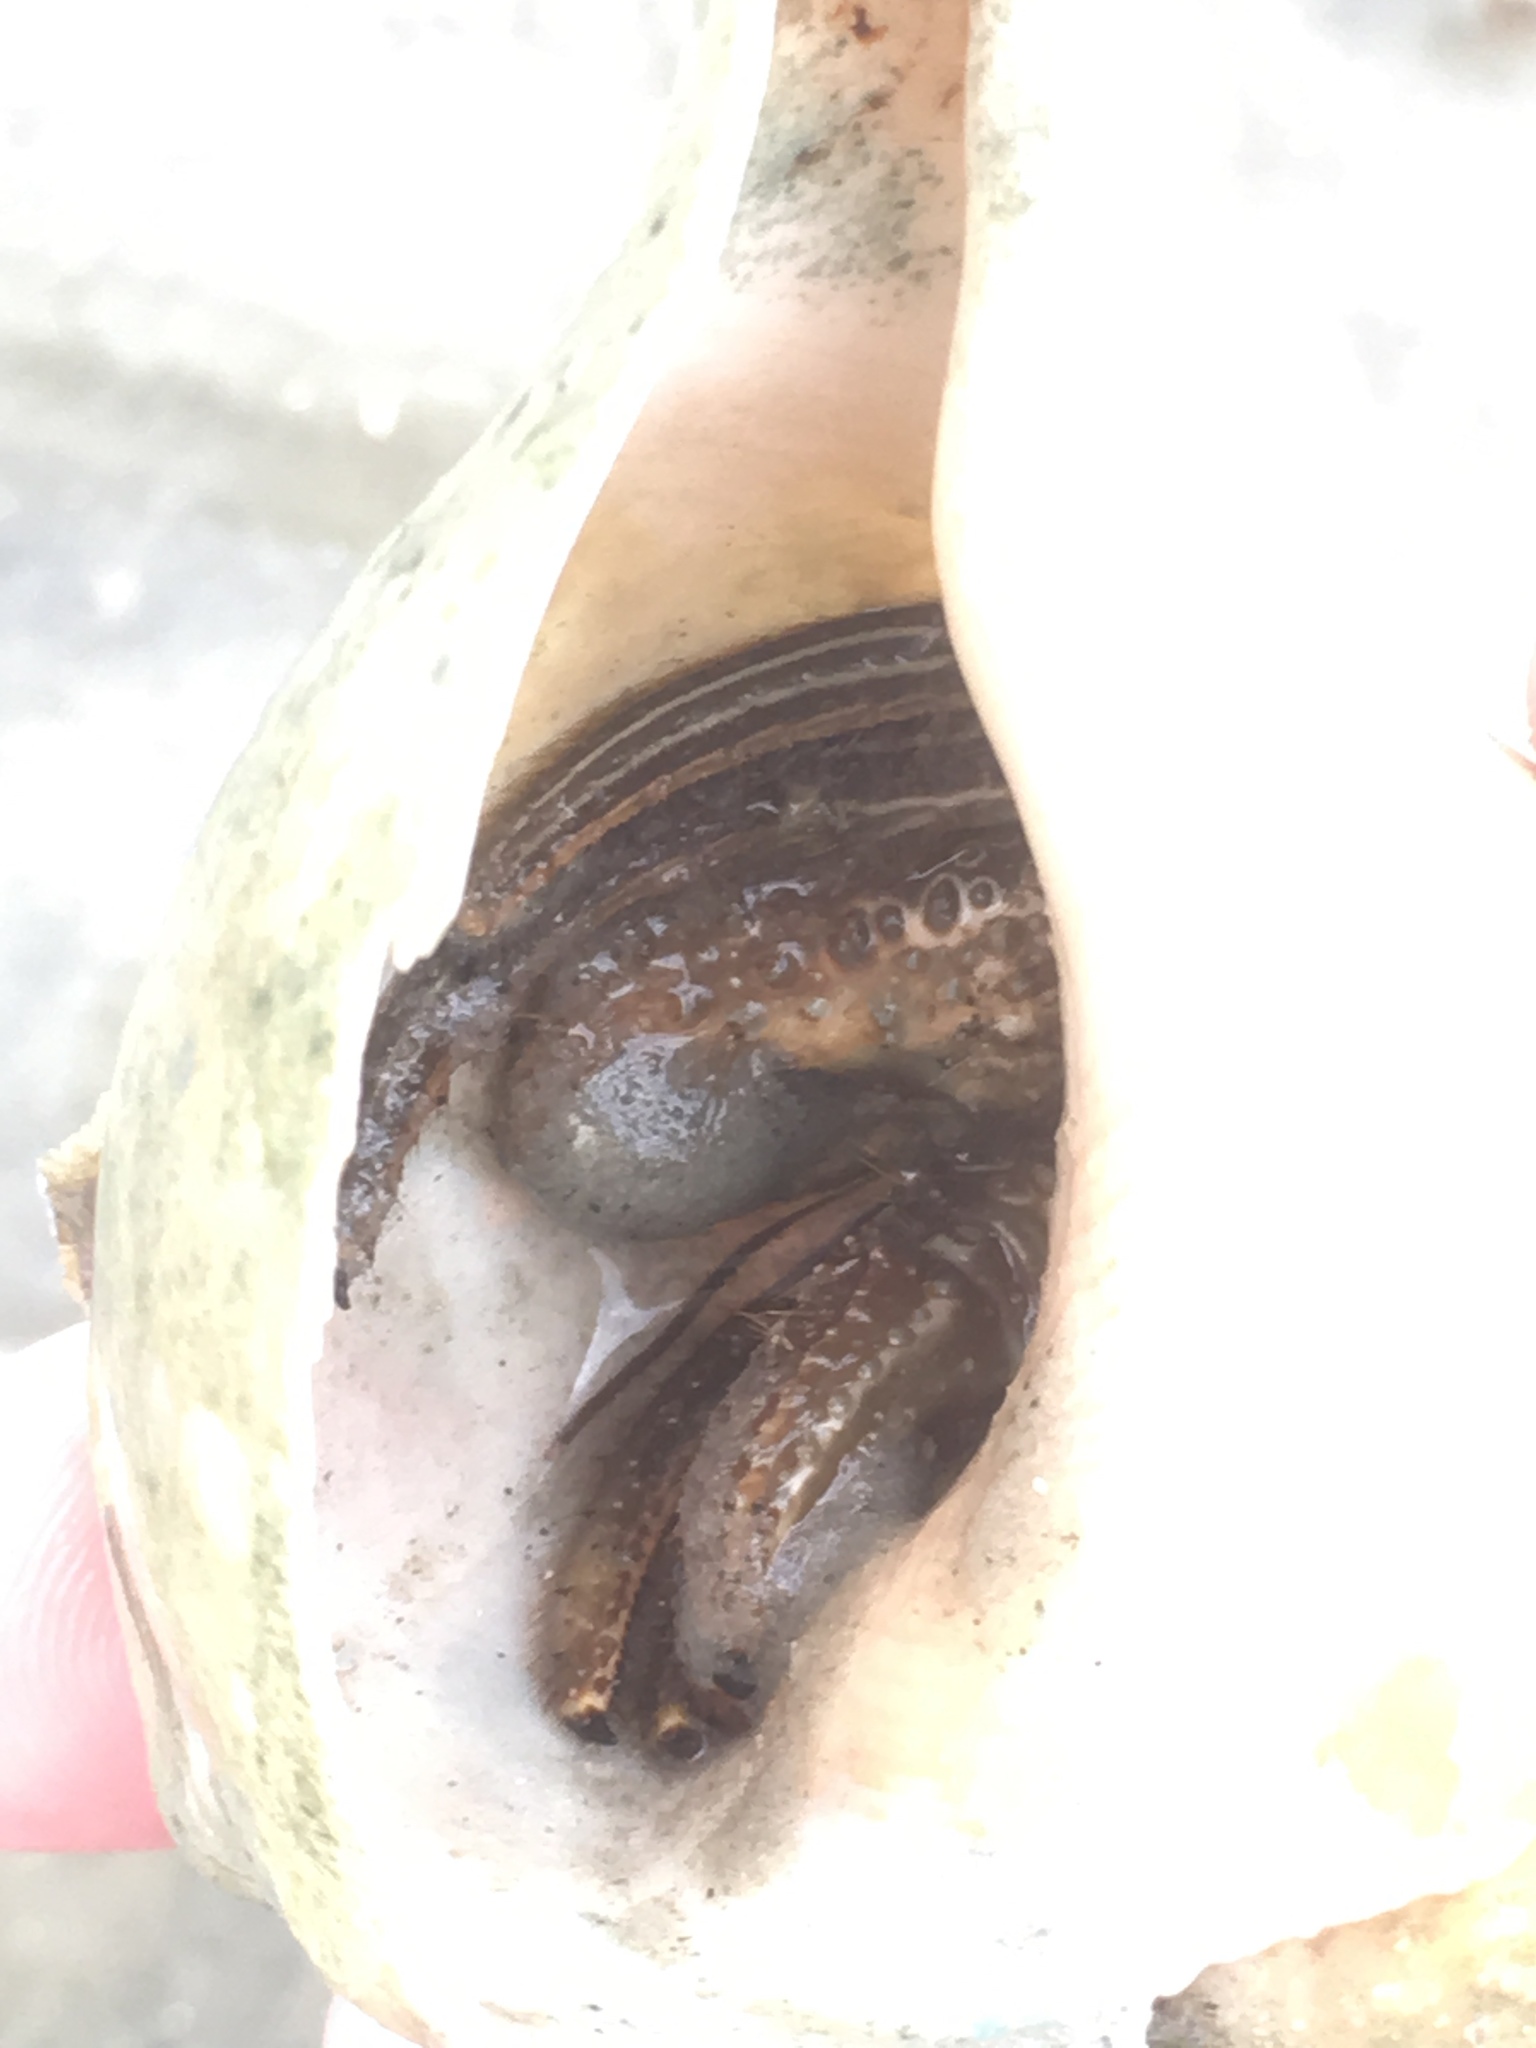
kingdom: Animalia
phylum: Arthropoda
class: Malacostraca
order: Decapoda
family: Diogenidae
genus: Clibanarius
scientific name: Clibanarius vittatus
